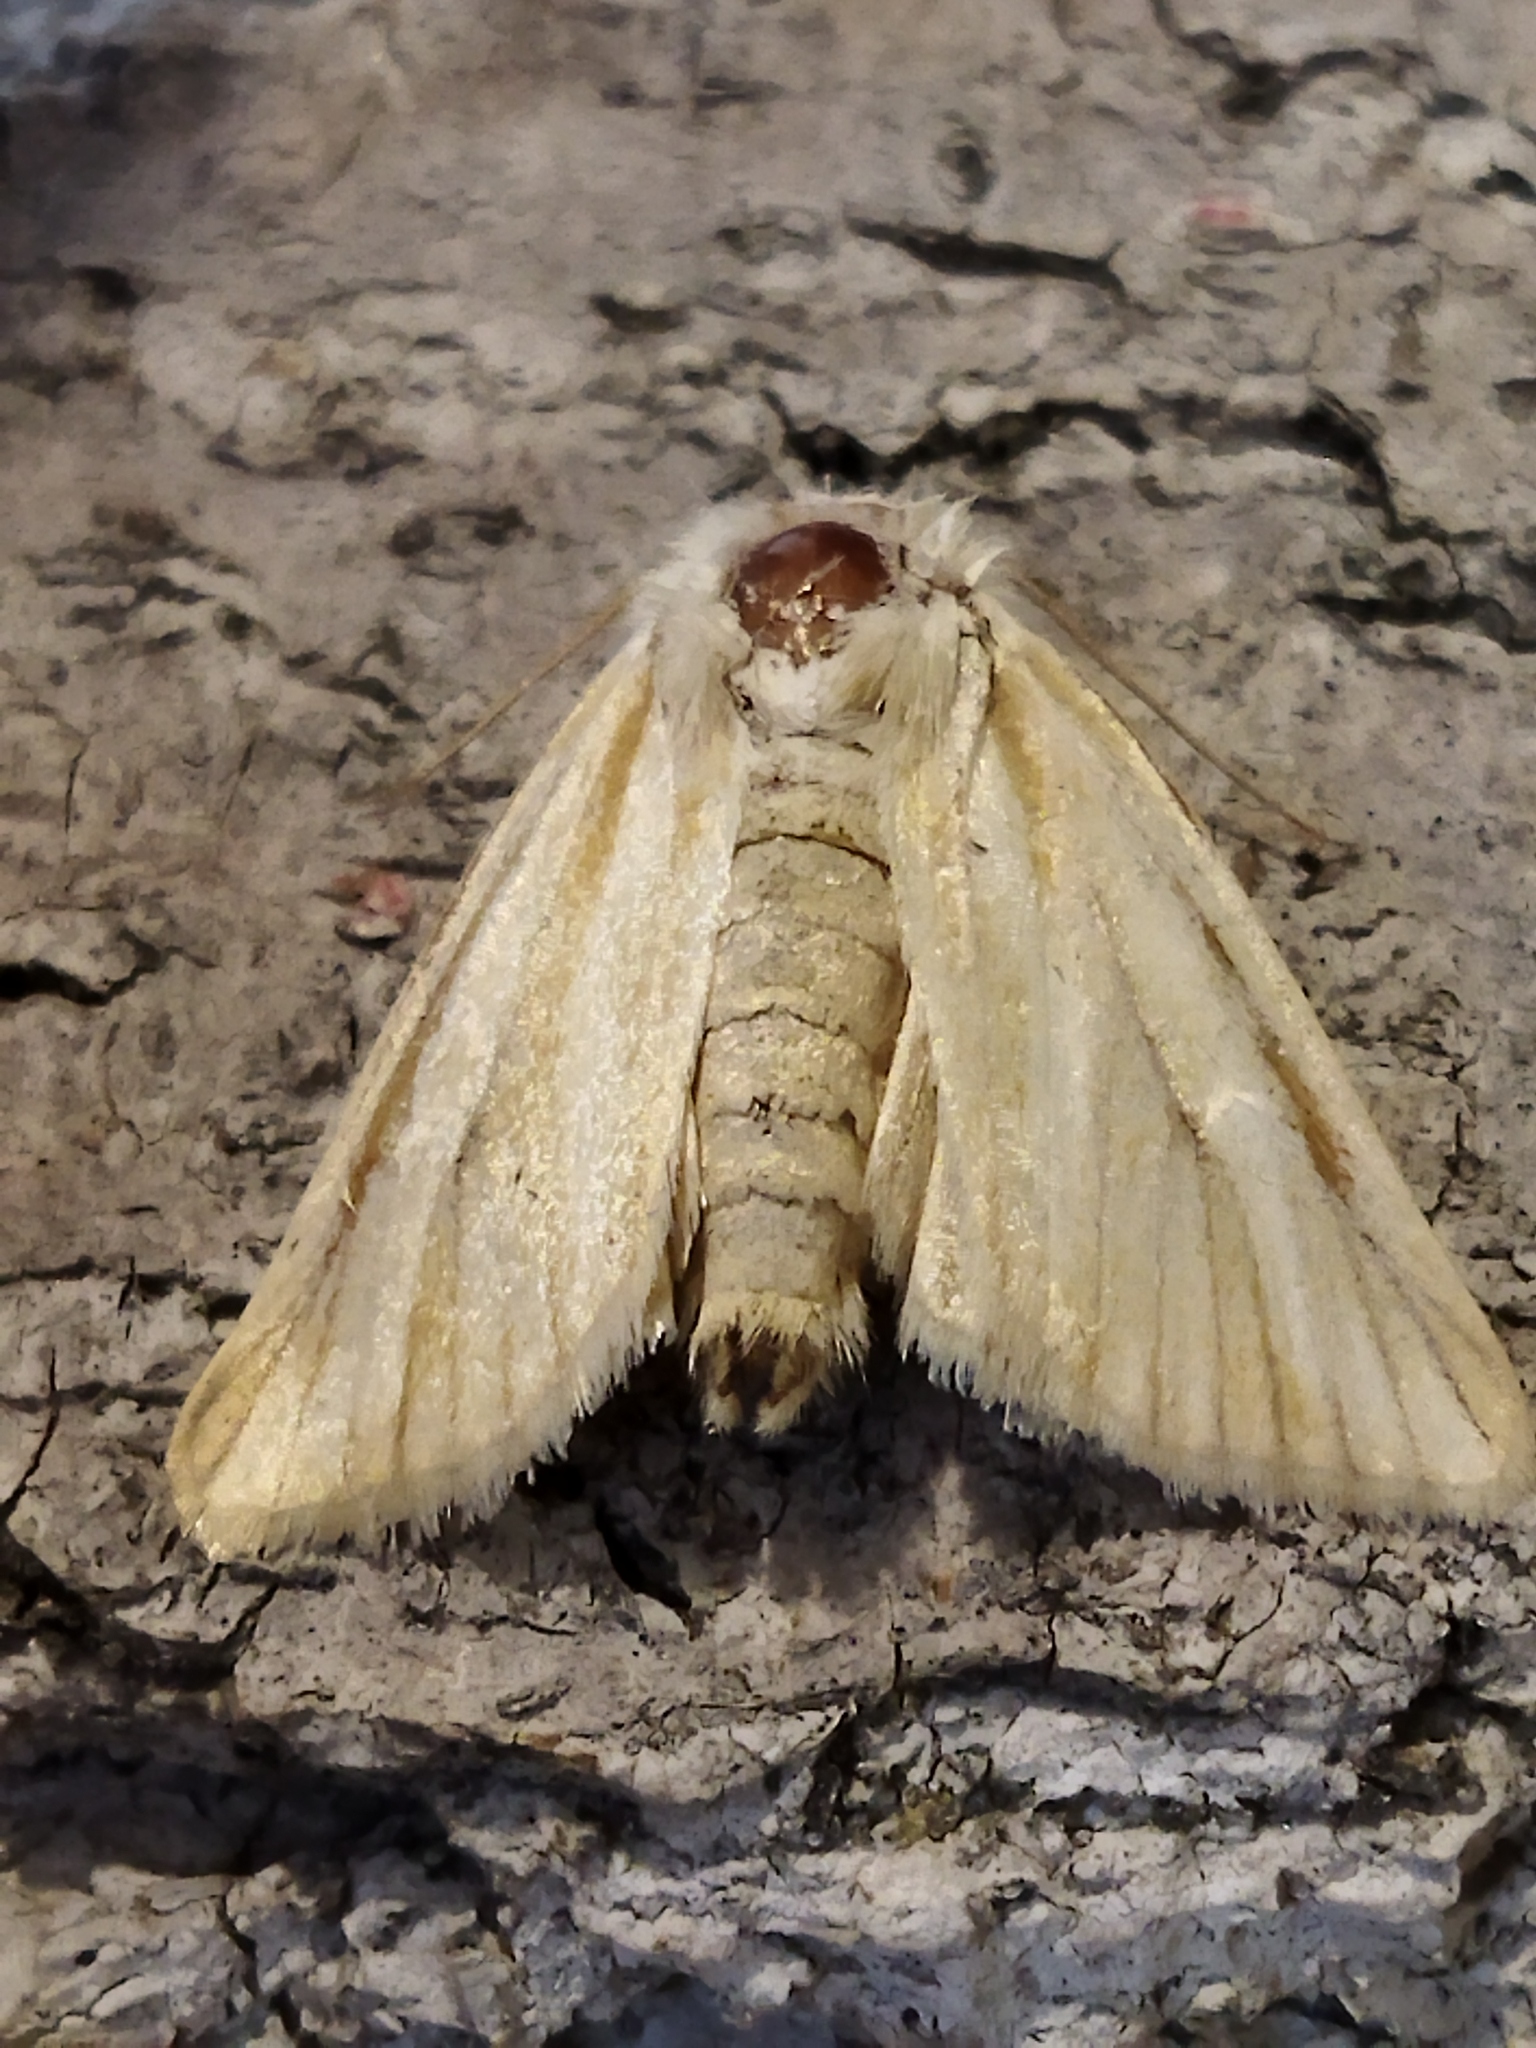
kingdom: Animalia
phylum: Arthropoda
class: Insecta
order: Lepidoptera
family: Noctuidae
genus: Oria
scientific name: Oria musculosa
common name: Brighton wainscot
